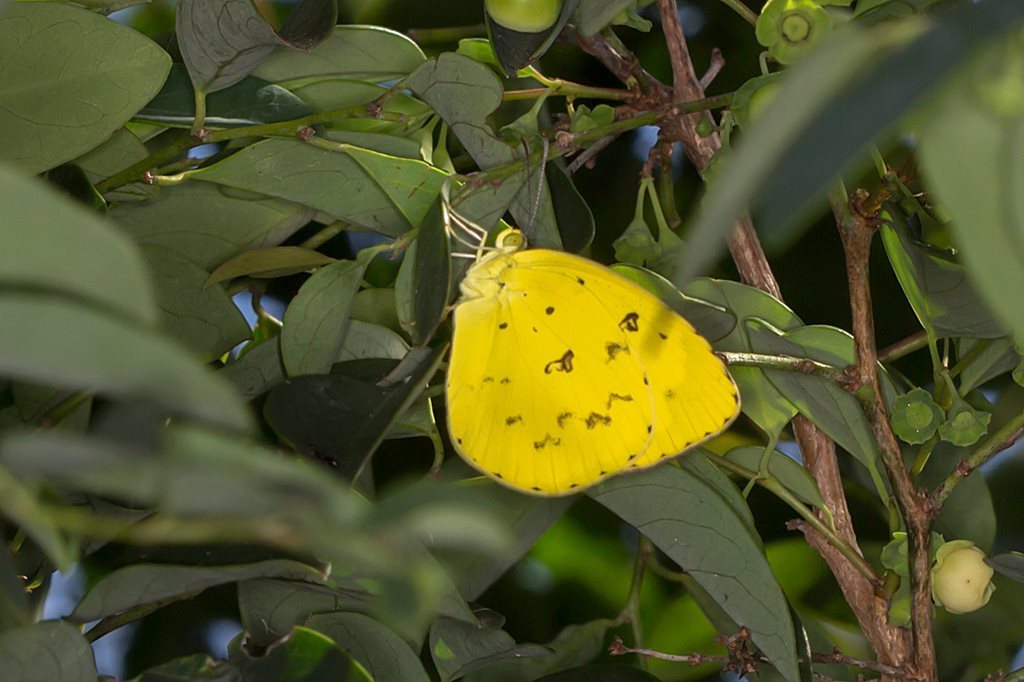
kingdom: Animalia
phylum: Arthropoda
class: Insecta
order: Lepidoptera
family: Pieridae
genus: Eurema
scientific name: Eurema hecabe
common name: Pale grass yellow
